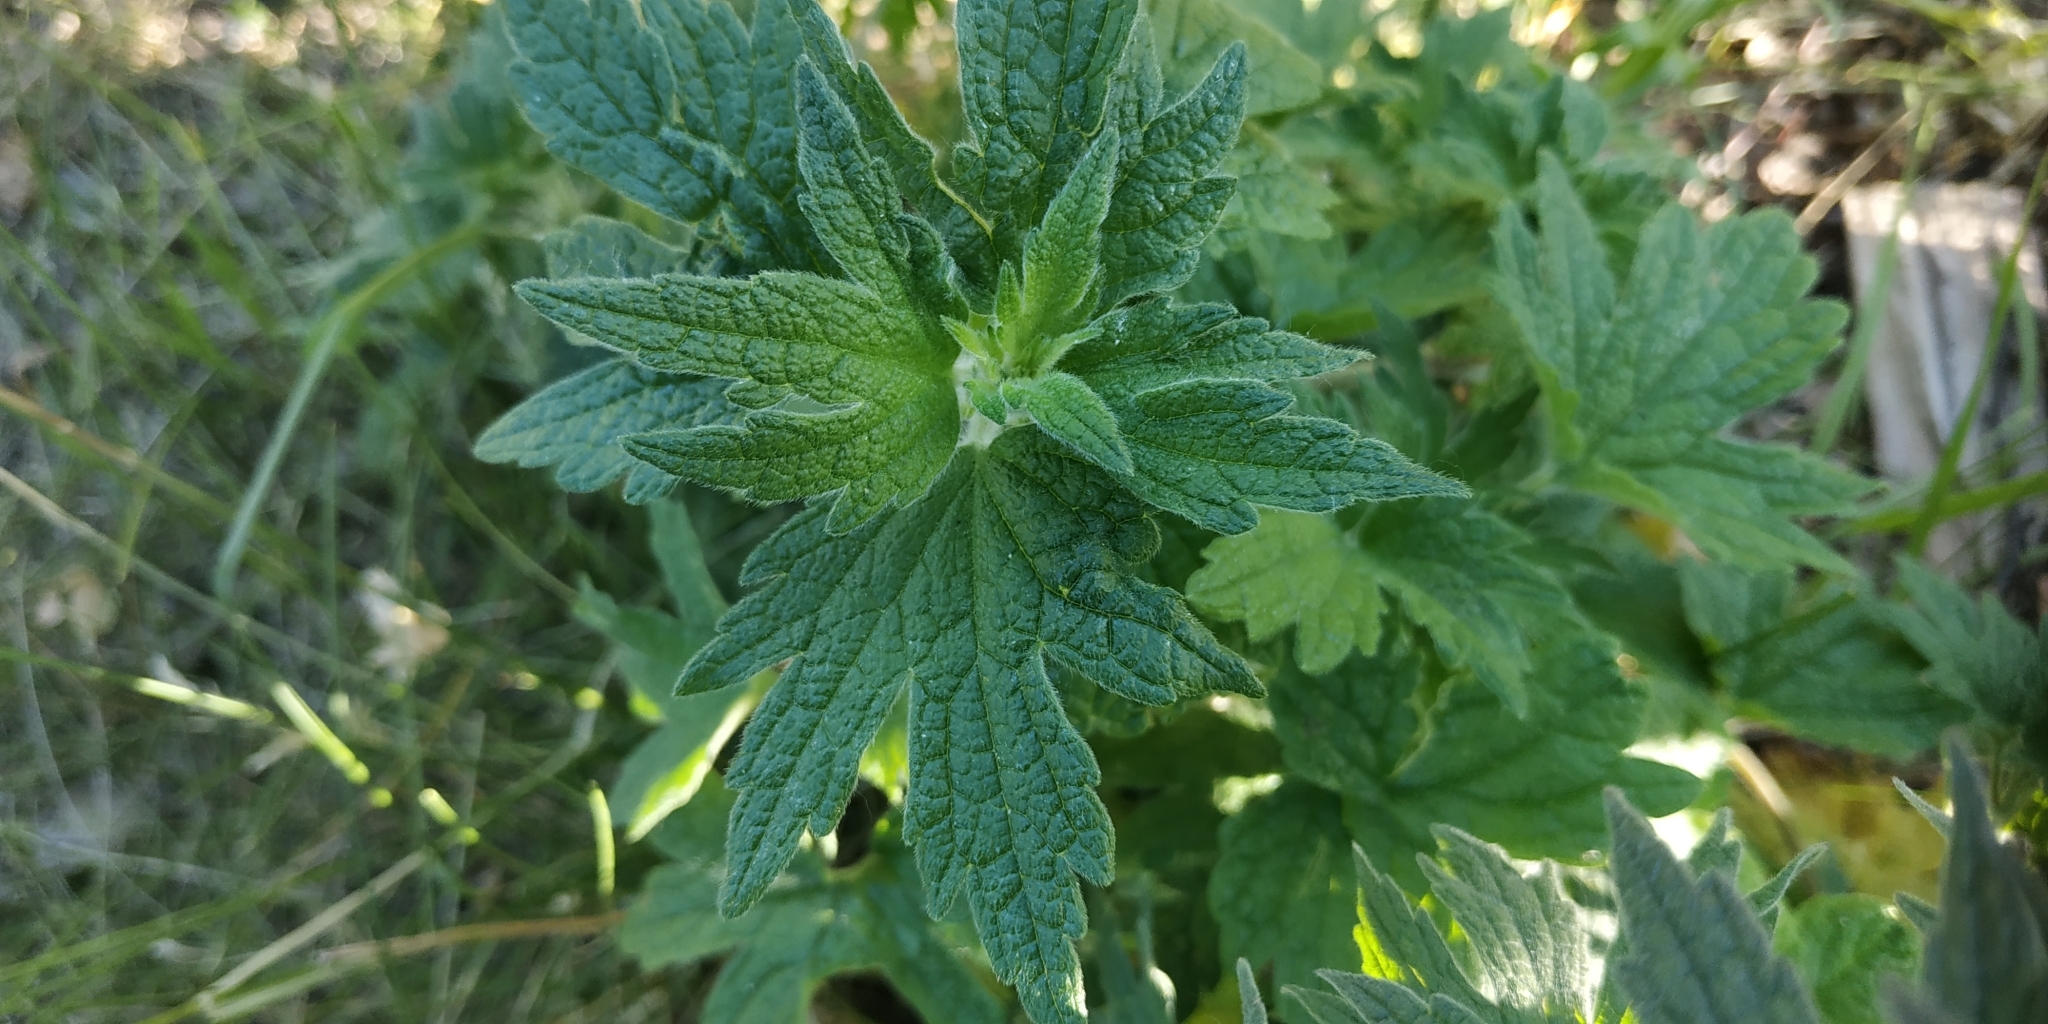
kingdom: Plantae
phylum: Tracheophyta
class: Magnoliopsida
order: Lamiales
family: Lamiaceae
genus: Leonurus
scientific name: Leonurus quinquelobatus
